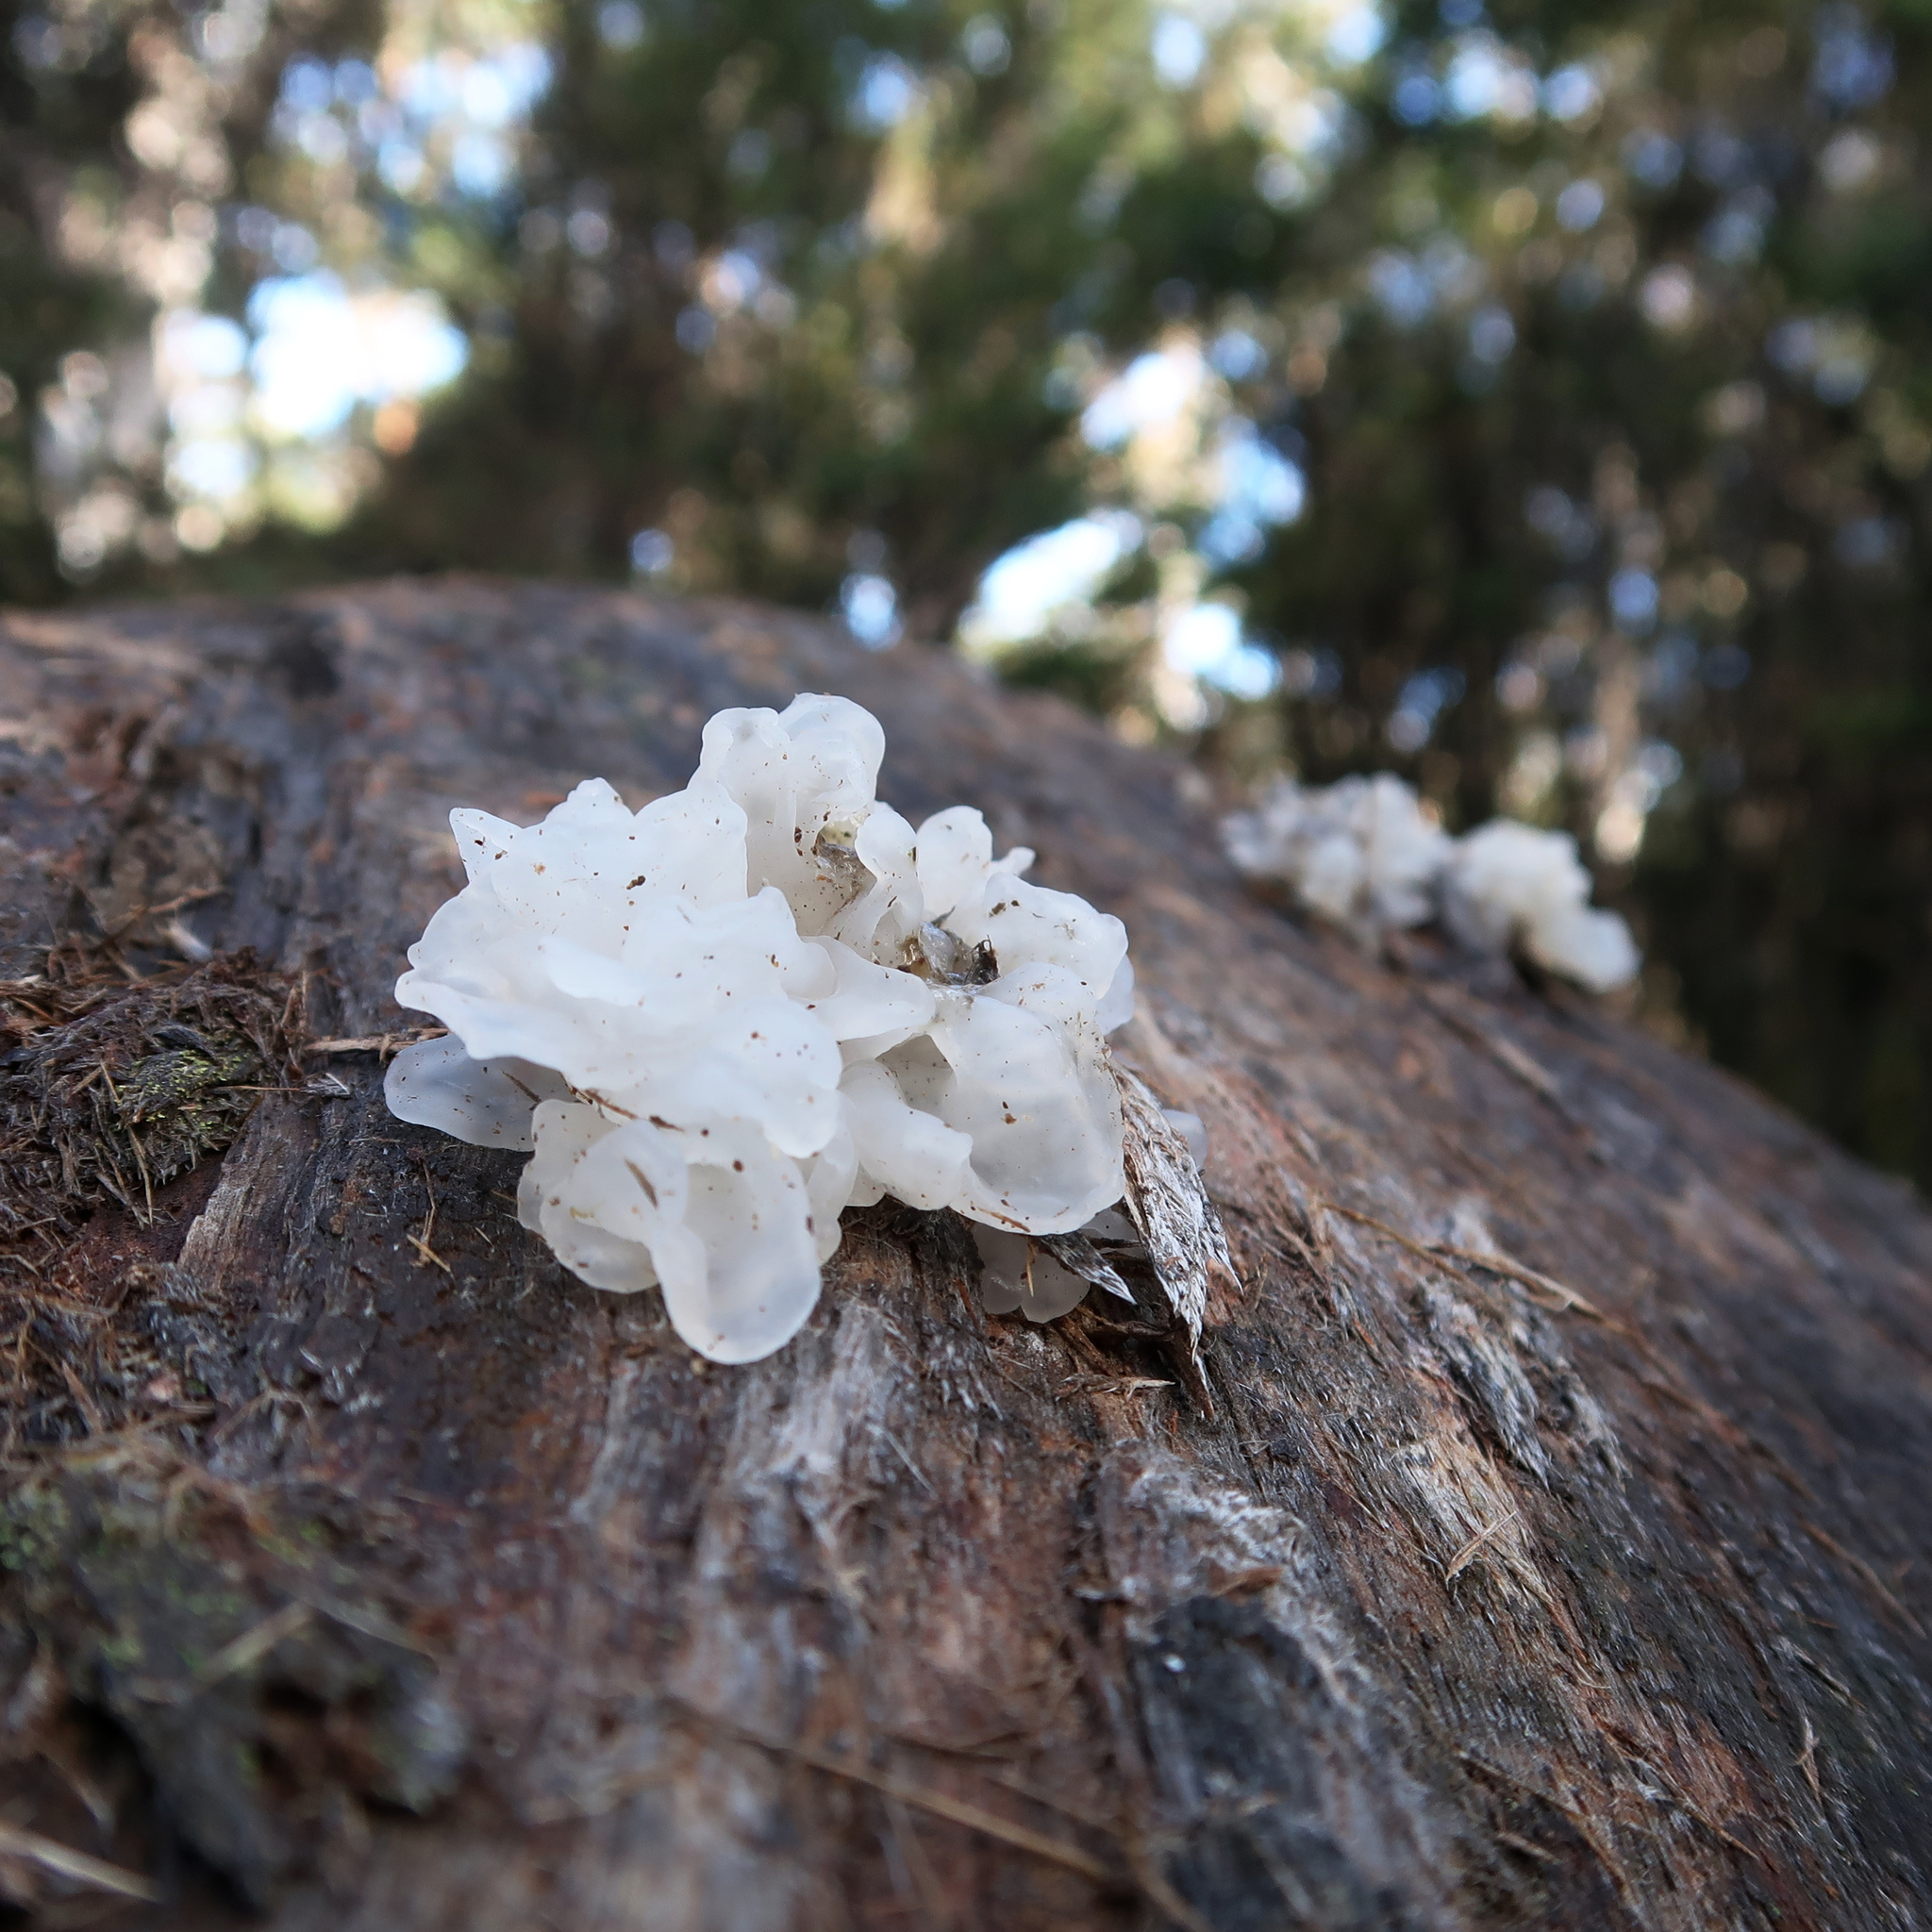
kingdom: Fungi
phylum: Basidiomycota
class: Tremellomycetes
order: Tremellales
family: Tremellaceae
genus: Tremella
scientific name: Tremella fuciformis
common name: Snow fungus
